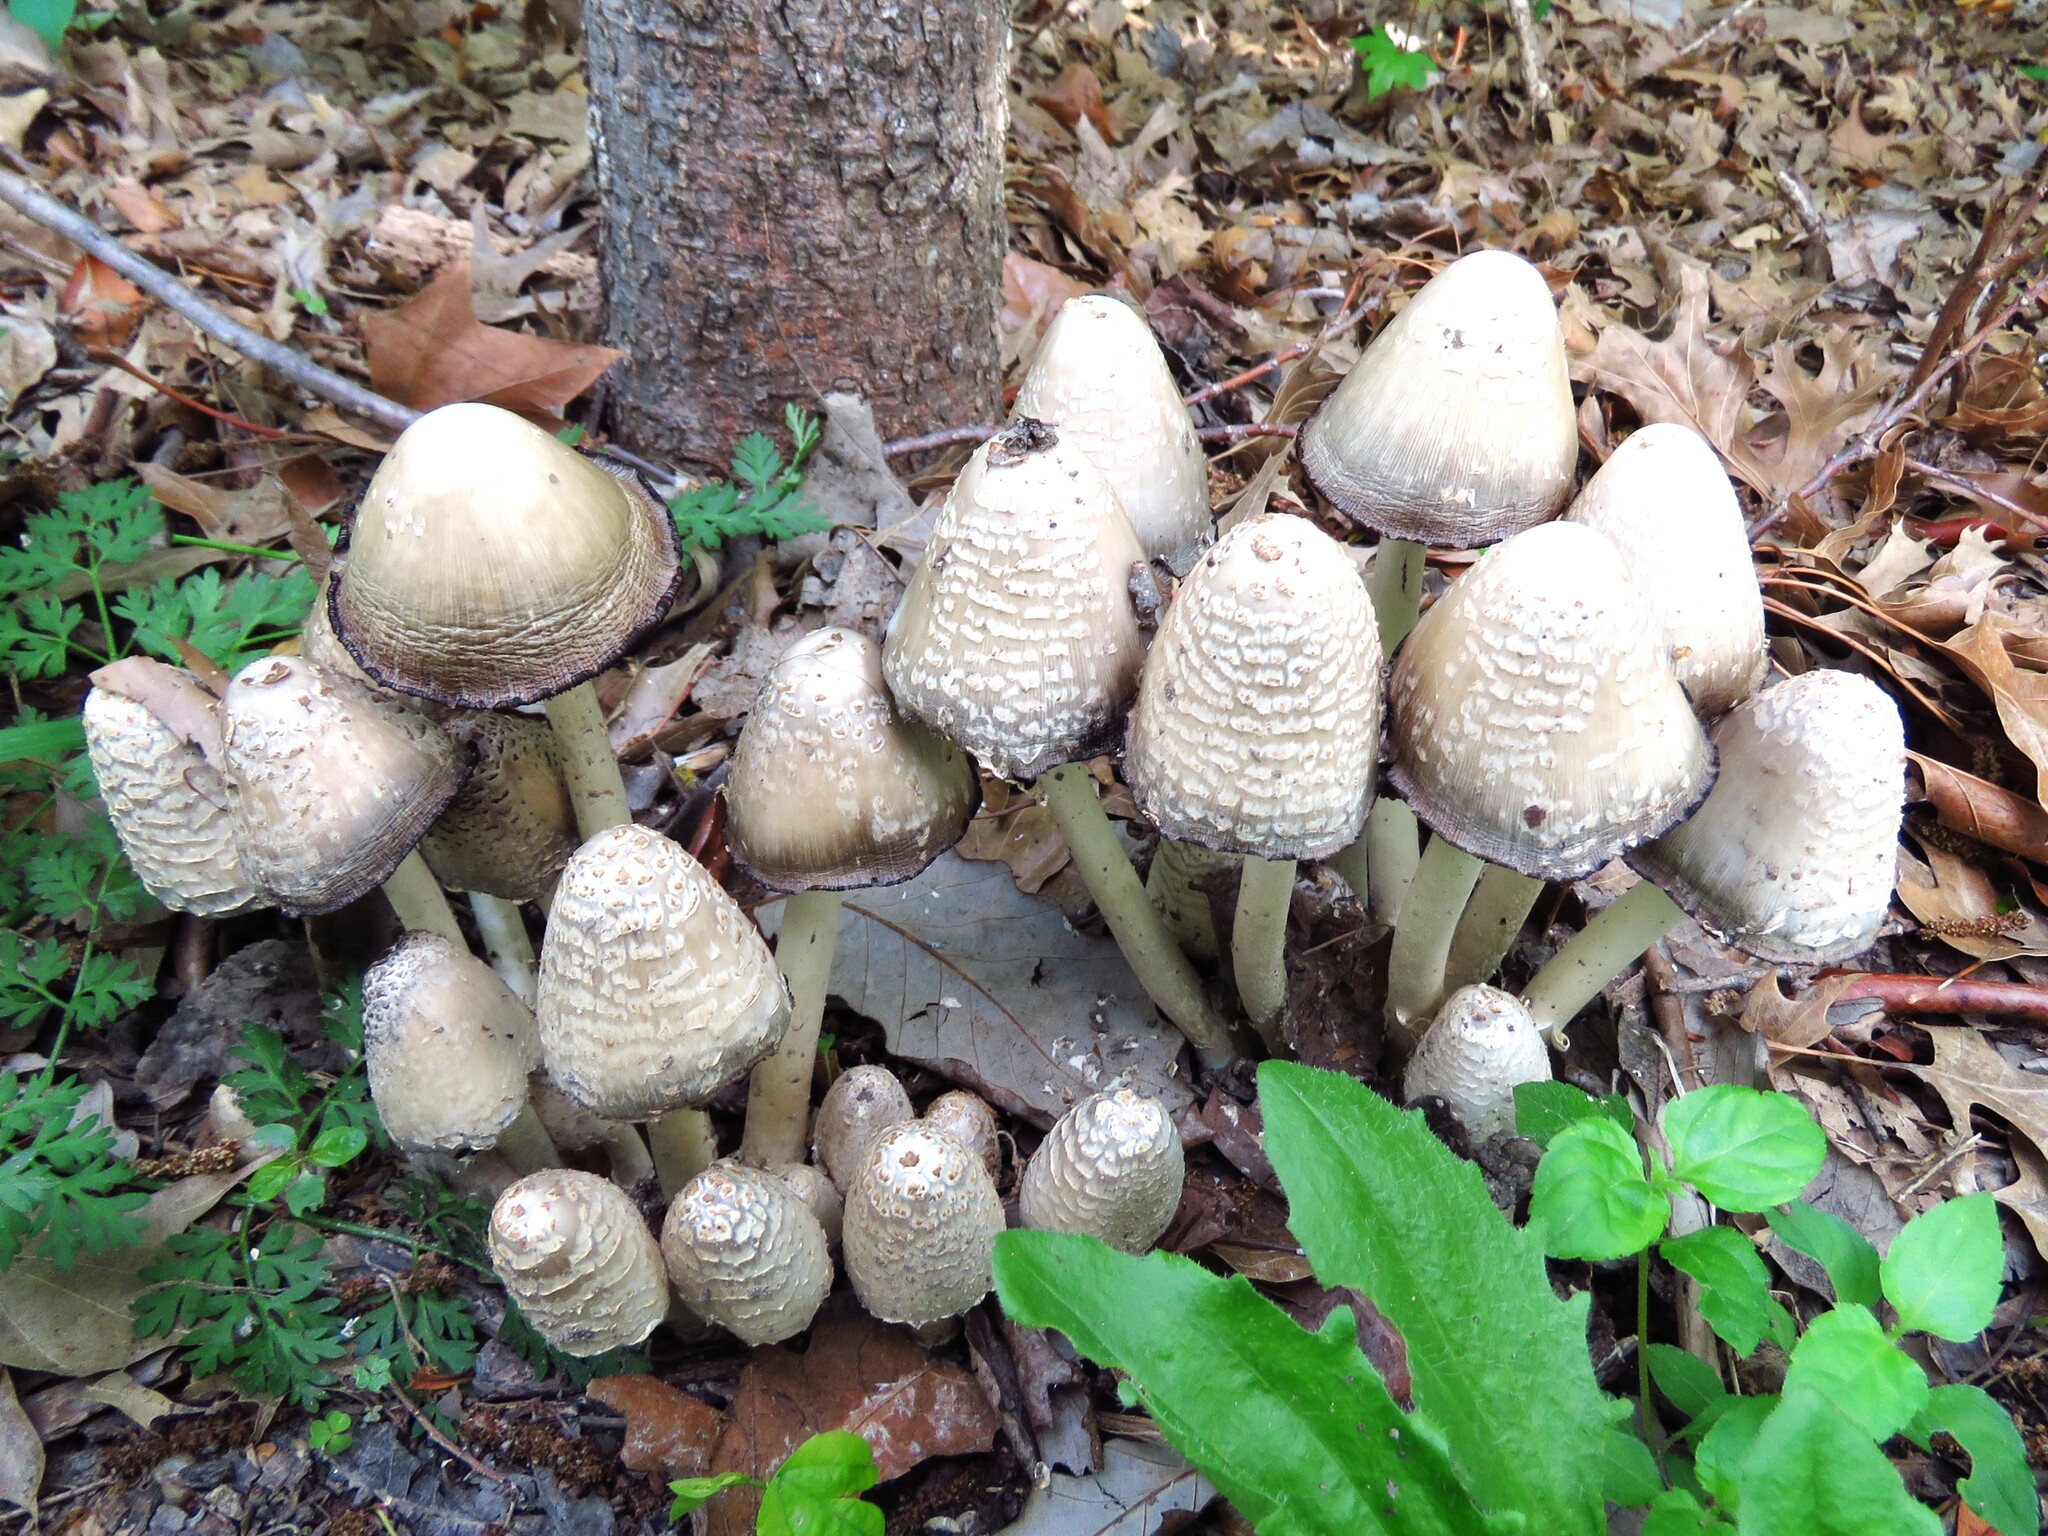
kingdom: Fungi
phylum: Basidiomycota
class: Agaricomycetes
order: Agaricales
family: Psathyrellaceae
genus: Coprinopsis
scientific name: Coprinopsis variegata
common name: Scaly ink cap
